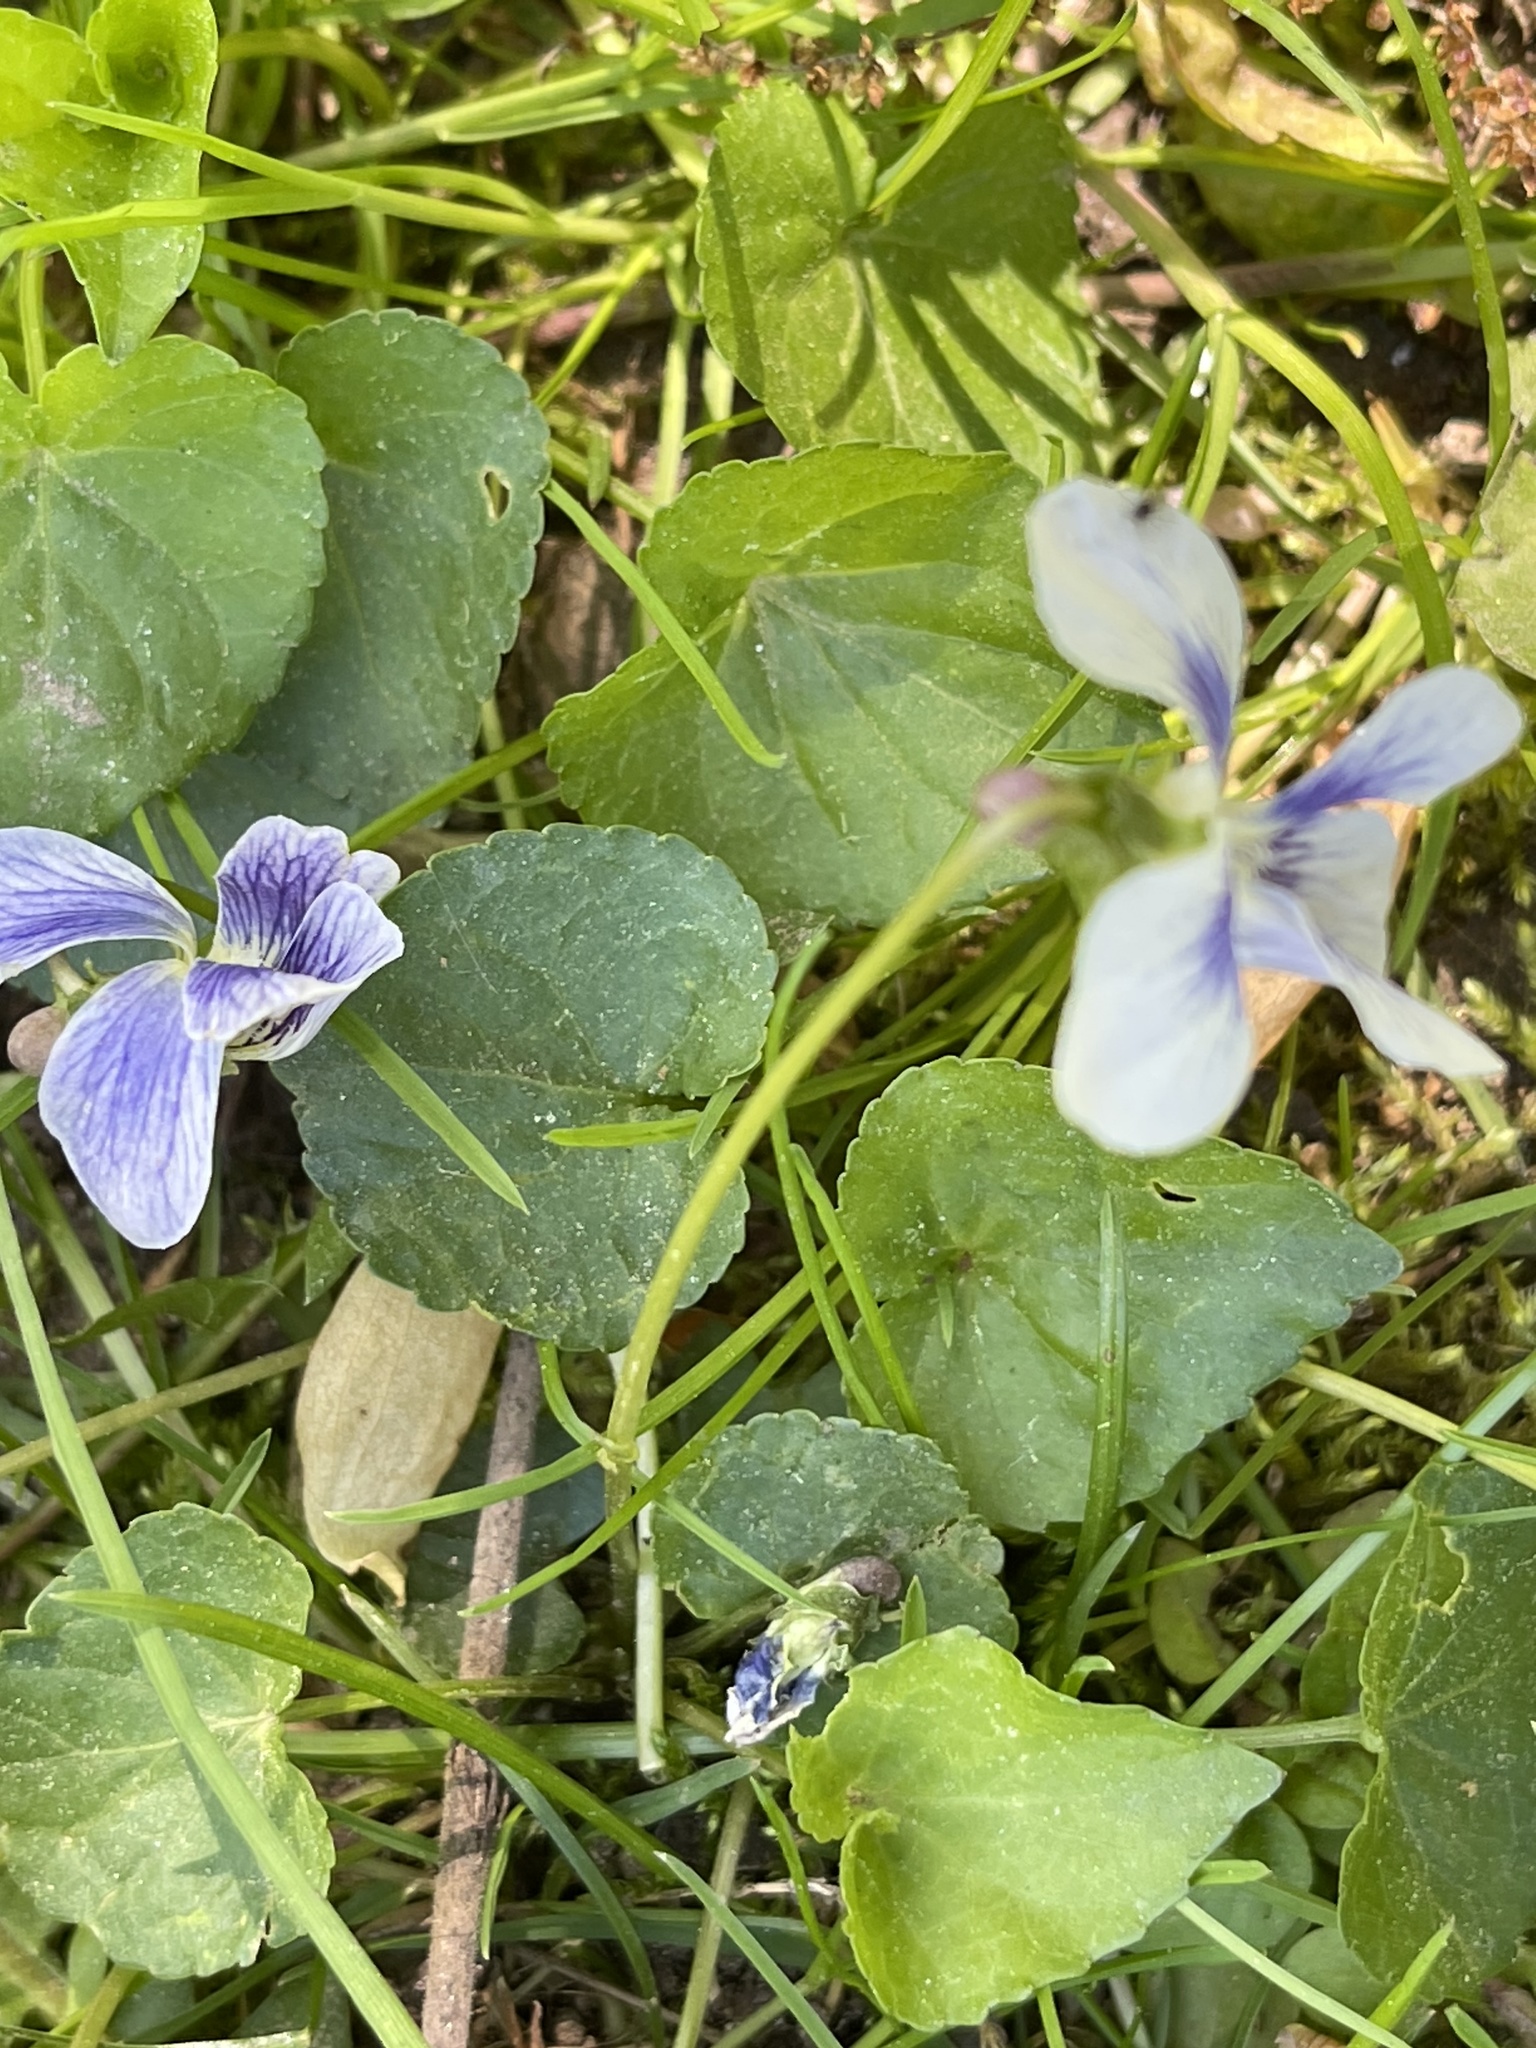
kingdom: Plantae
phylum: Tracheophyta
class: Magnoliopsida
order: Malpighiales
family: Violaceae
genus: Viola
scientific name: Viola sororia
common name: Dooryard violet
